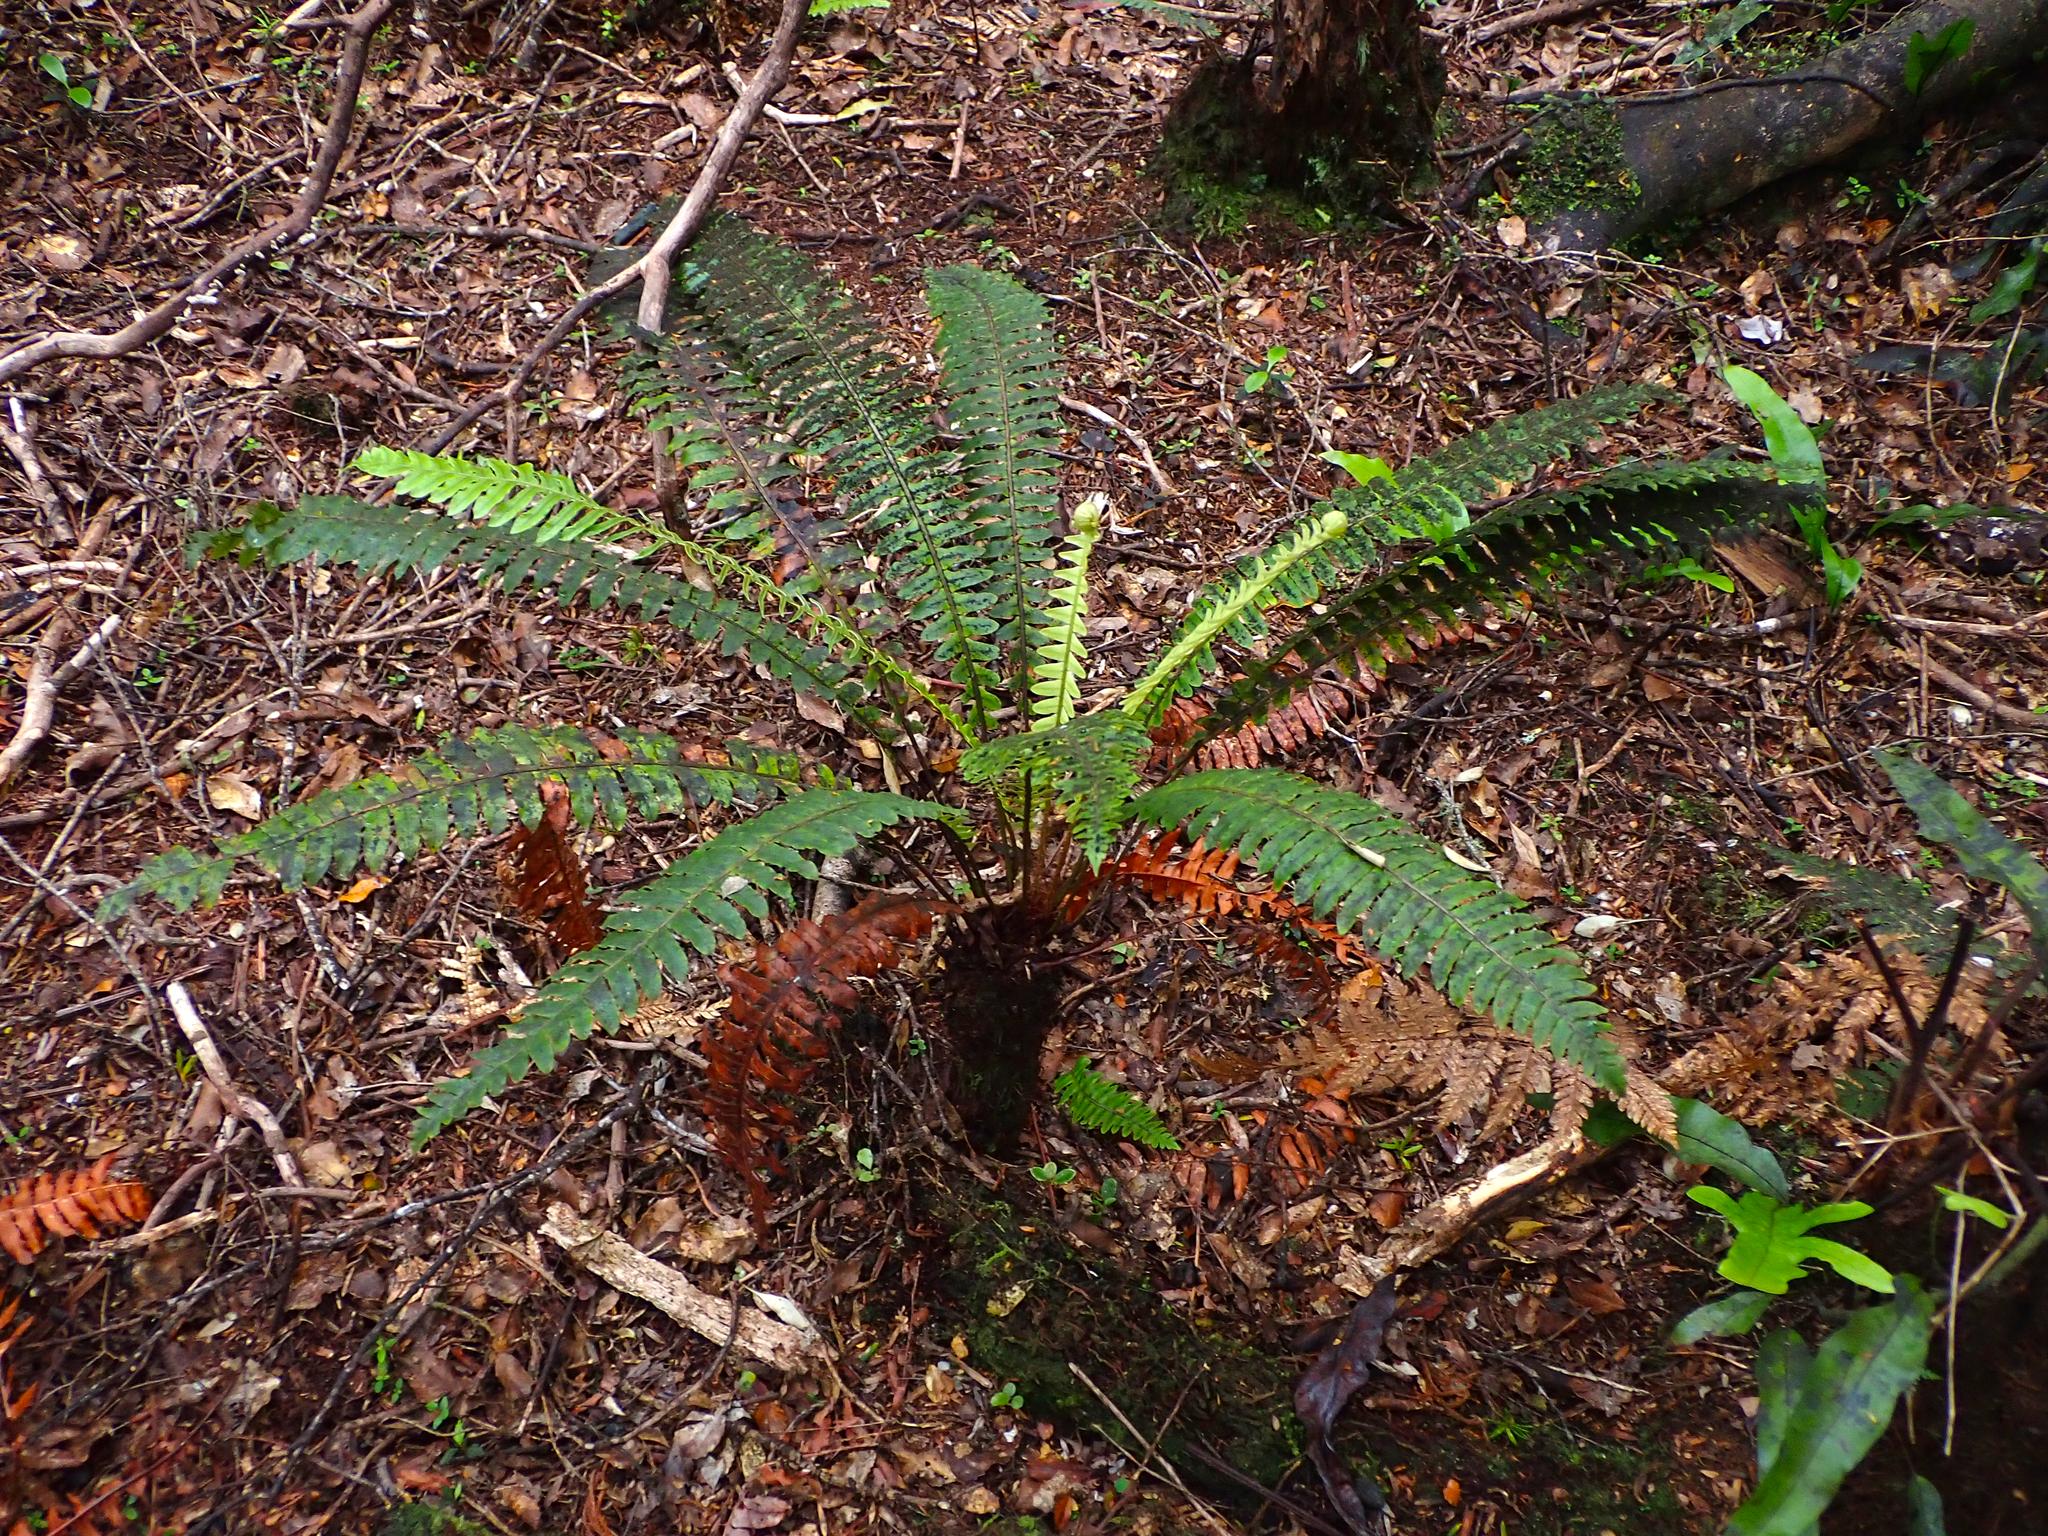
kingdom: Plantae
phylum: Tracheophyta
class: Polypodiopsida
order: Polypodiales
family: Blechnaceae
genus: Lomaria
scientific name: Lomaria discolor
